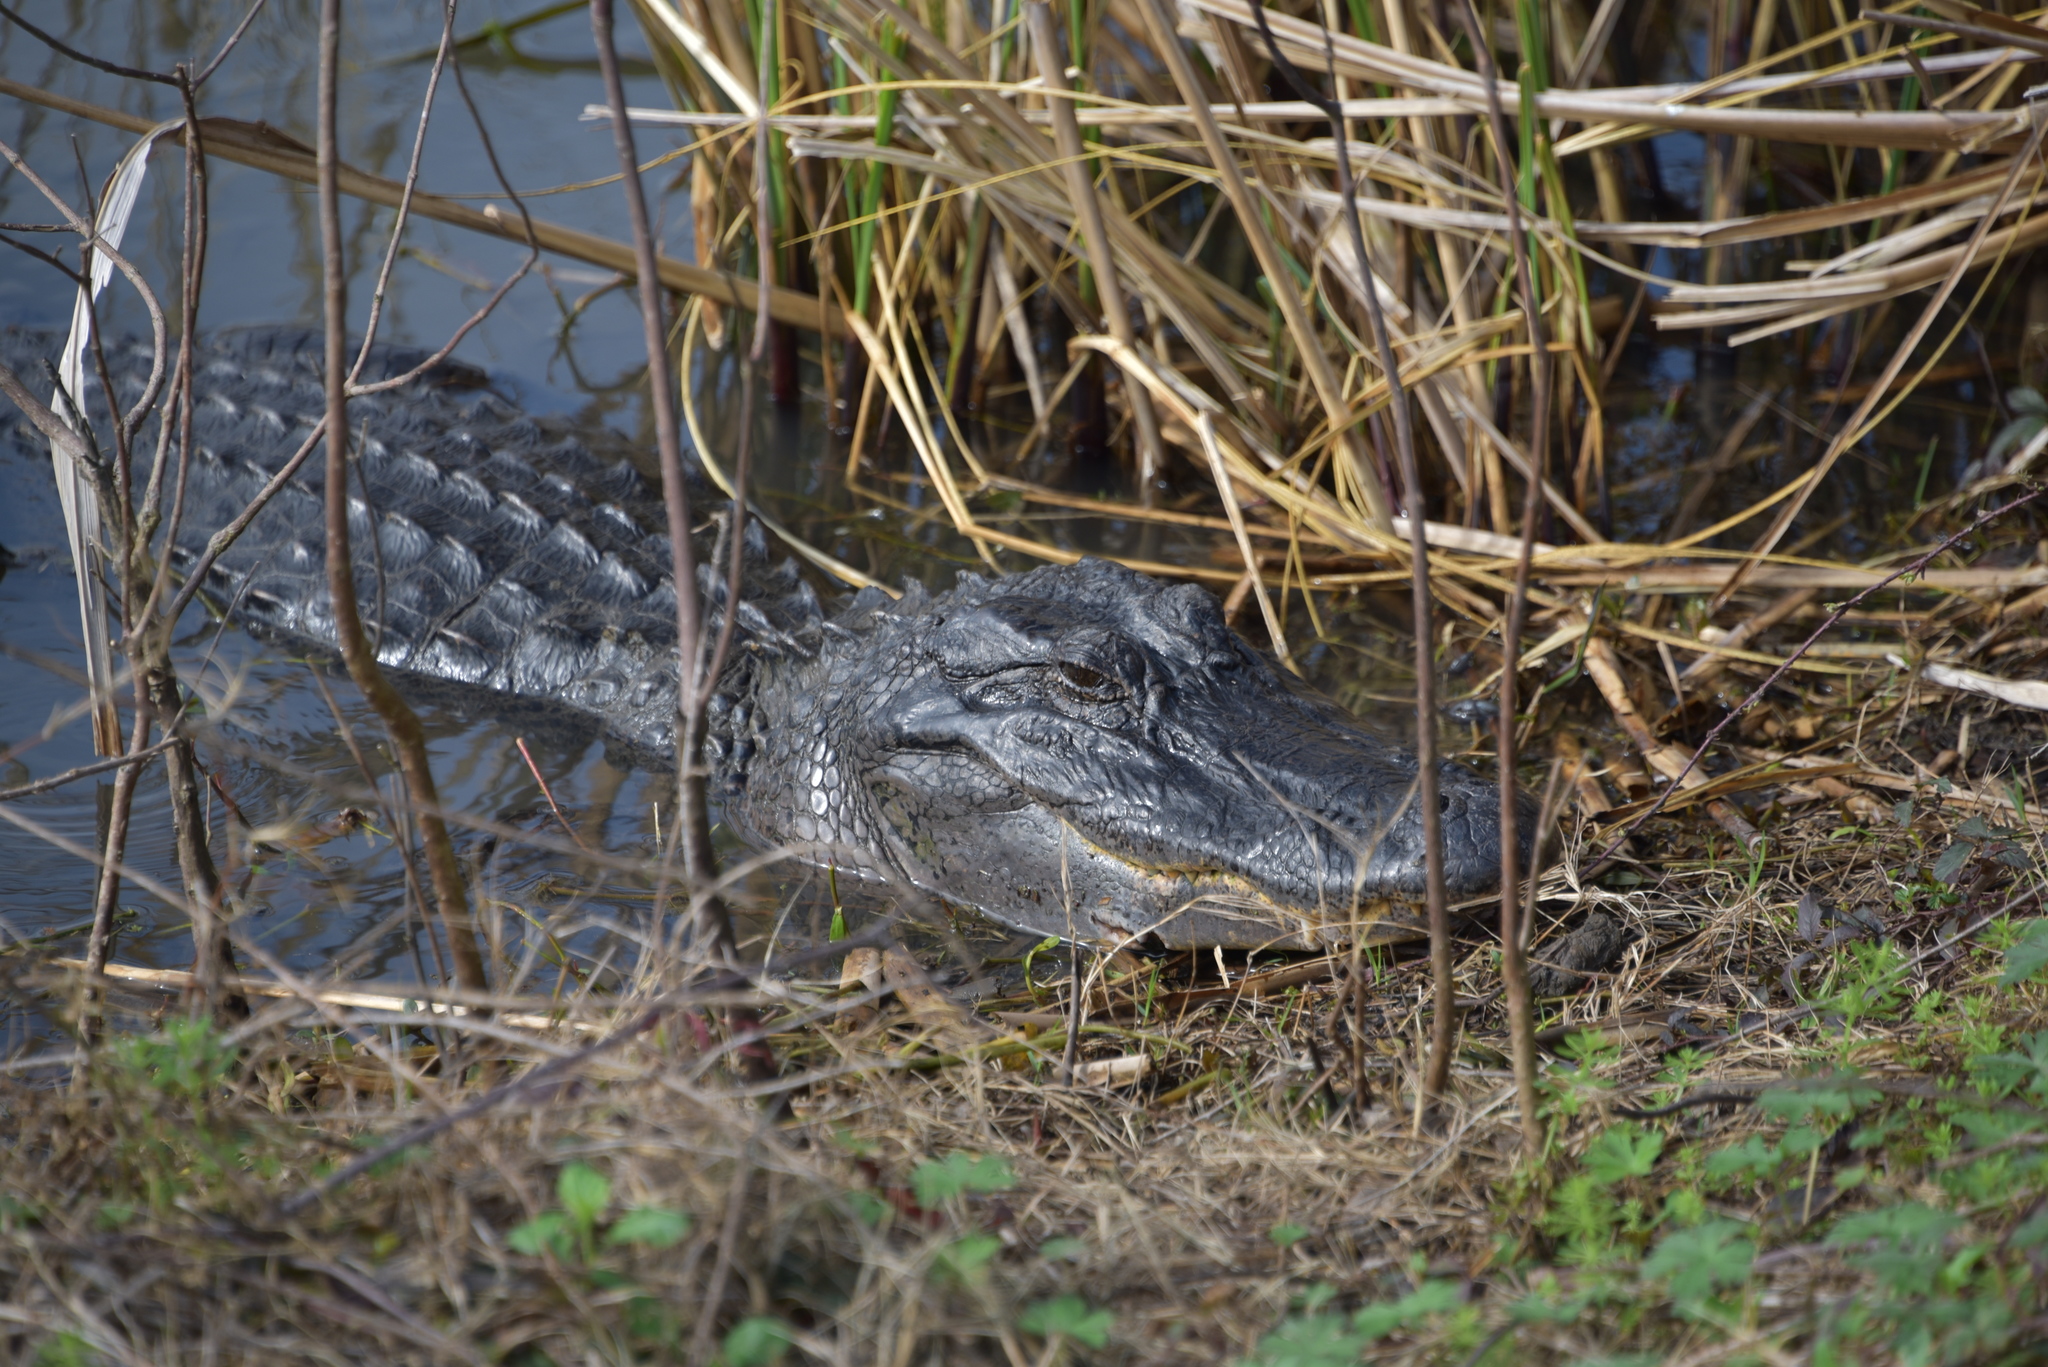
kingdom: Animalia
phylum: Chordata
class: Crocodylia
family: Alligatoridae
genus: Alligator
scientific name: Alligator mississippiensis
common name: American alligator
